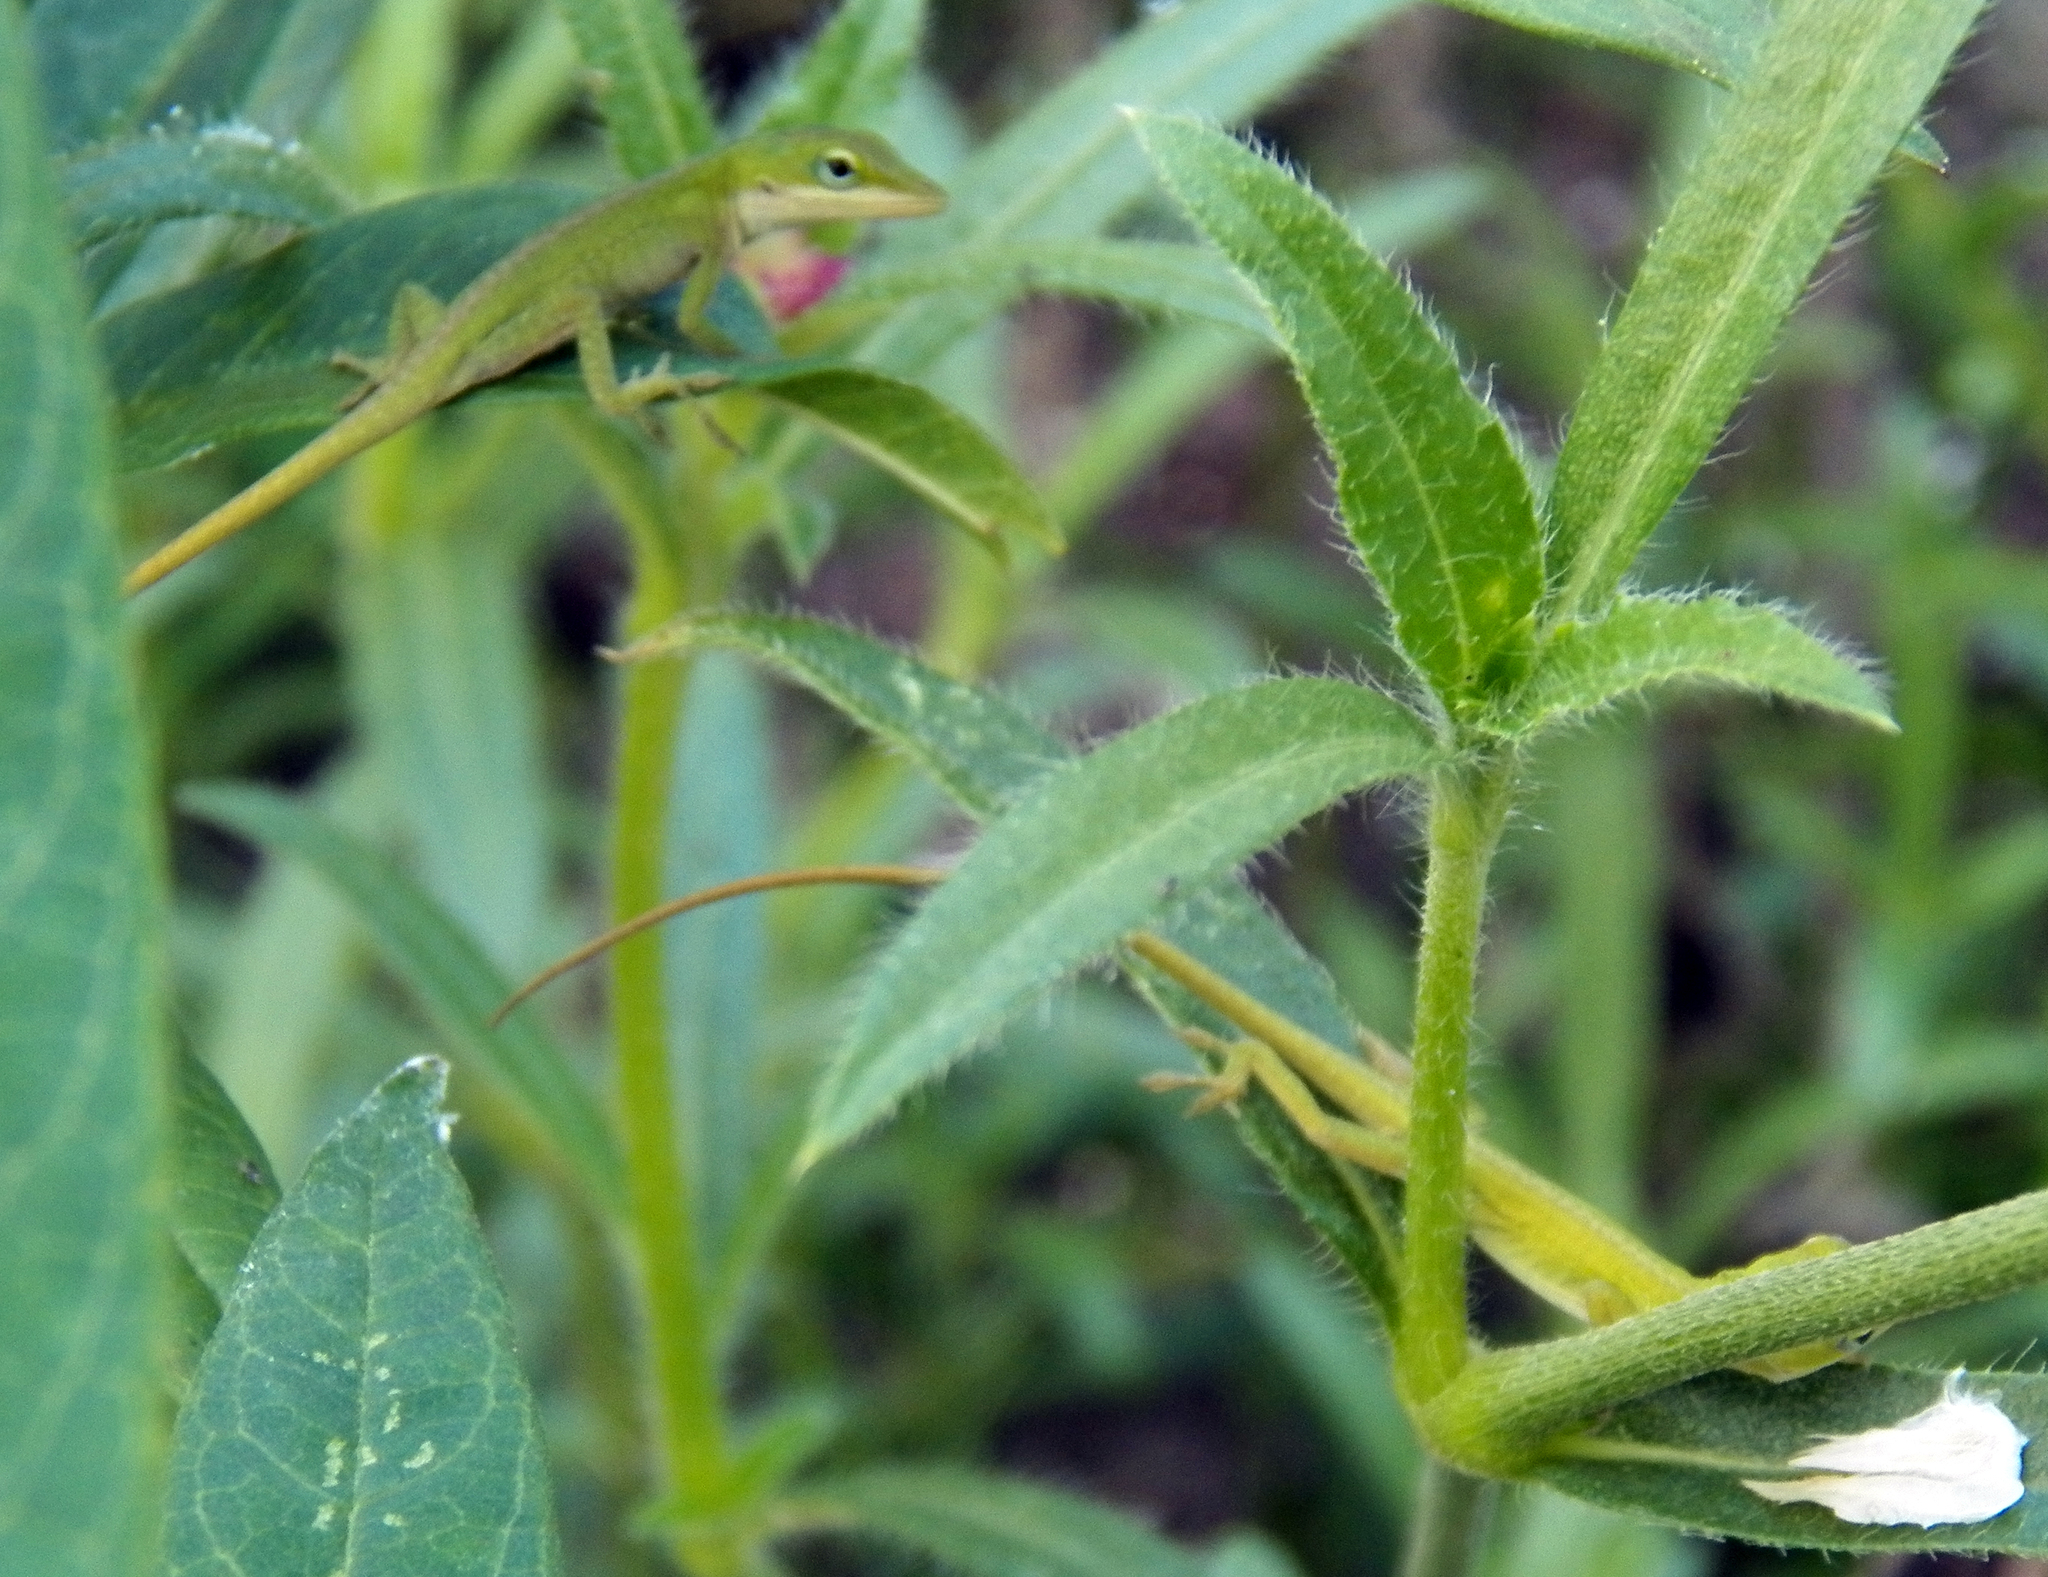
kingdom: Animalia
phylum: Chordata
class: Squamata
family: Dactyloidae
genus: Anolis
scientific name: Anolis carolinensis
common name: Green anole
